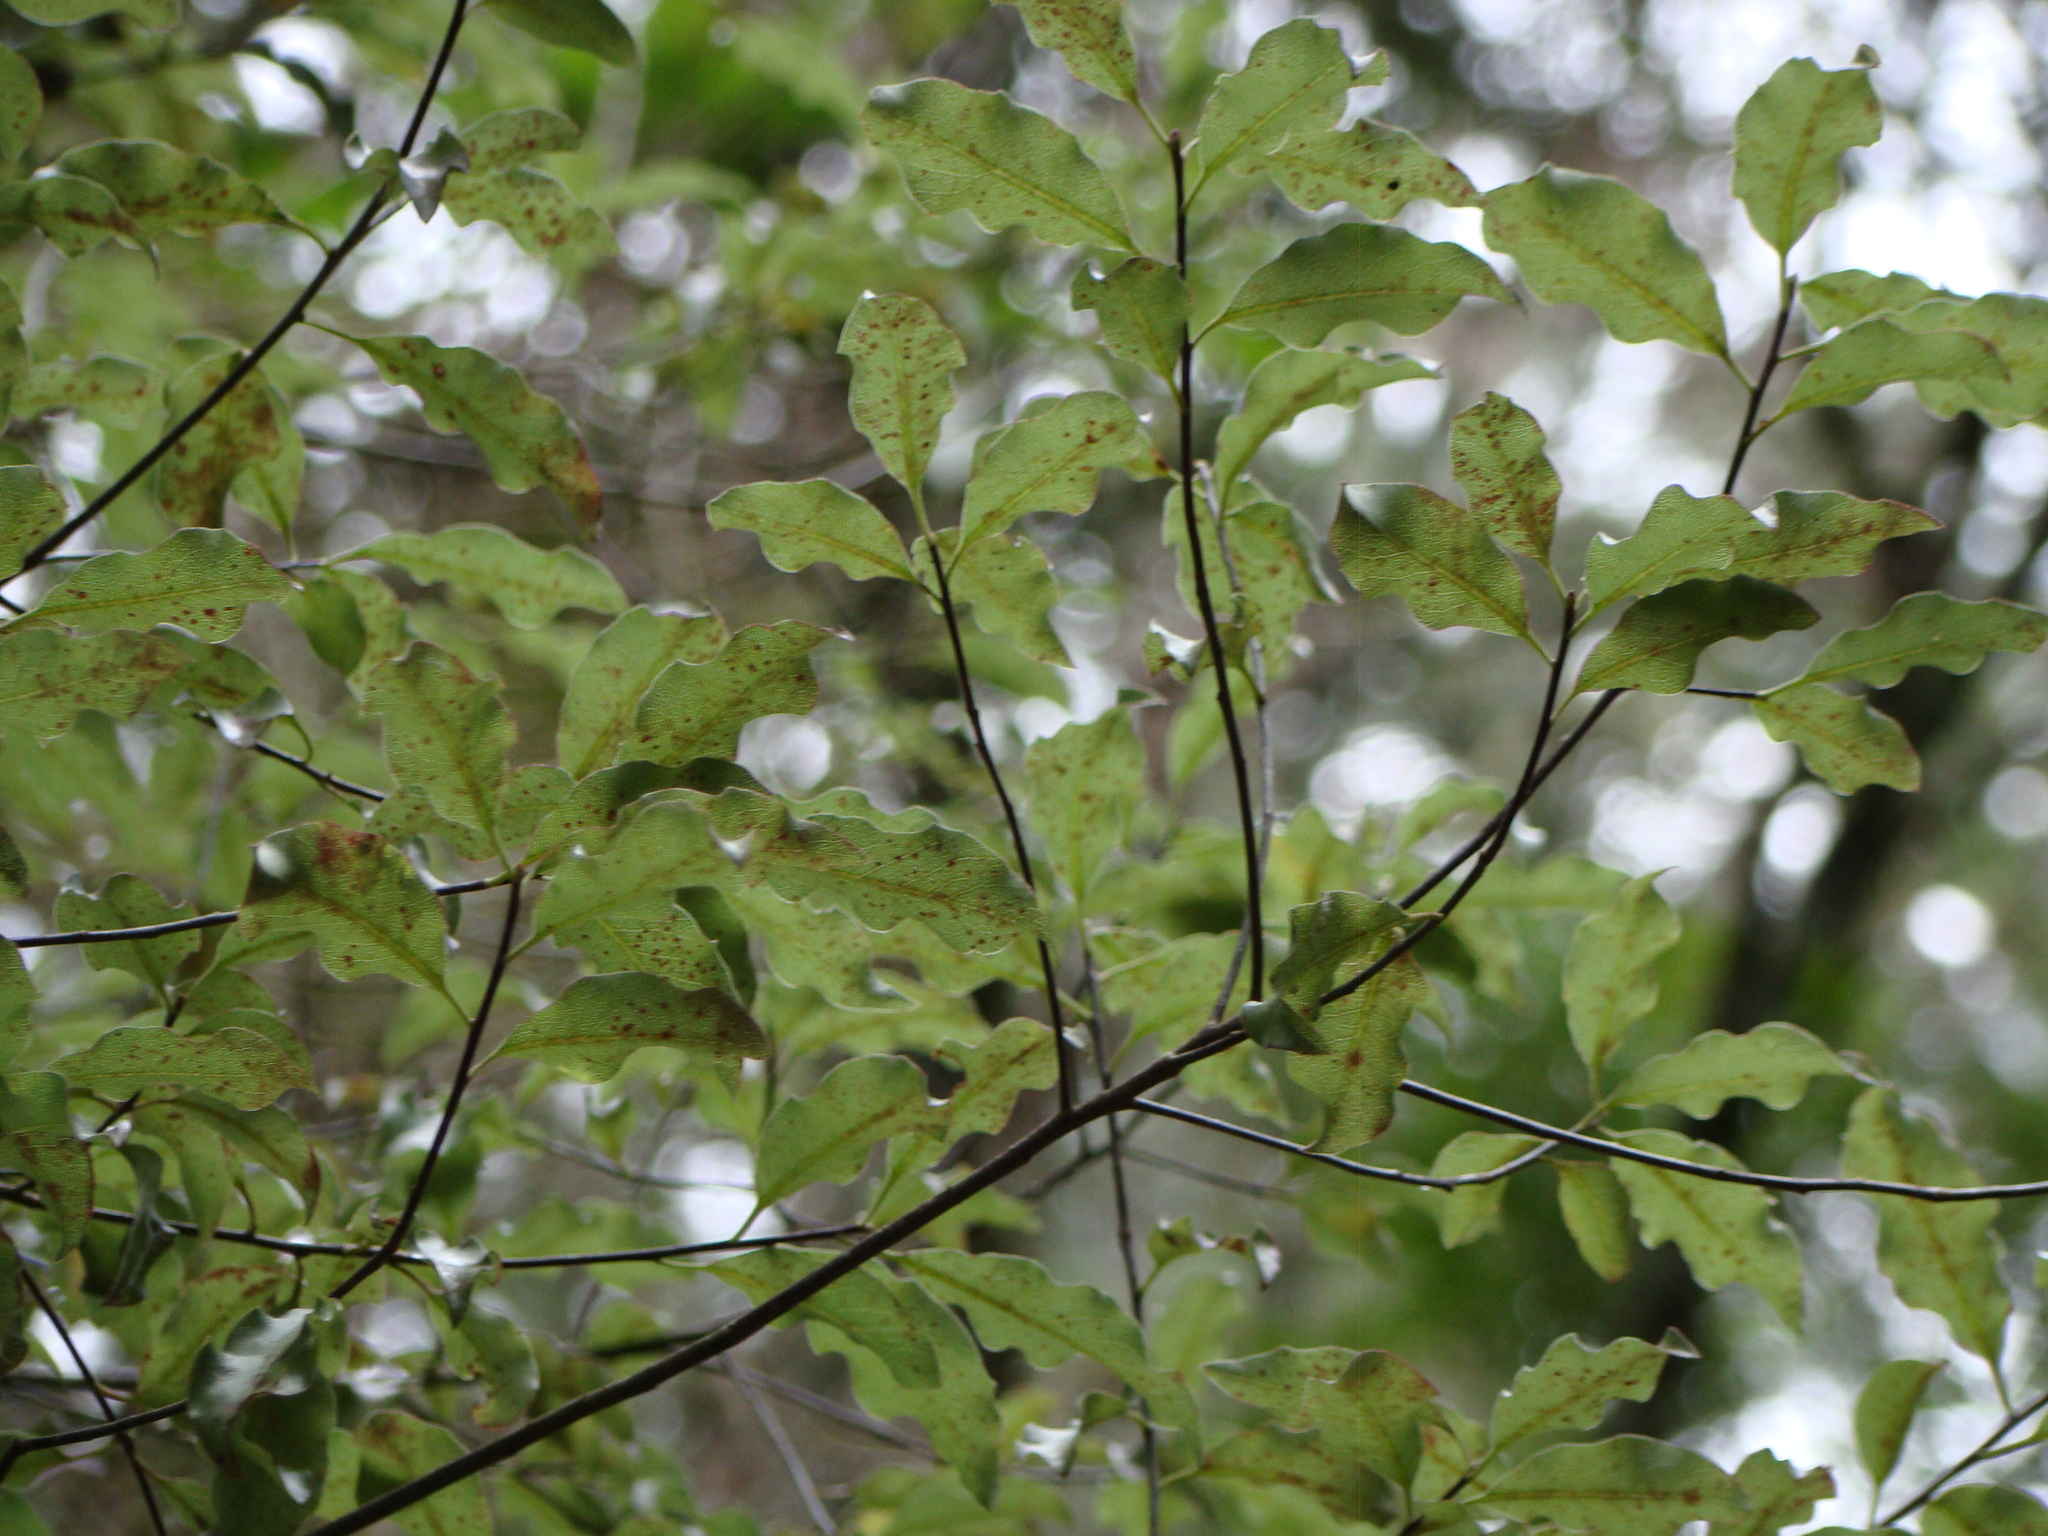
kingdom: Plantae
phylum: Tracheophyta
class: Magnoliopsida
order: Apiales
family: Pittosporaceae
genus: Pittosporum
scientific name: Pittosporum tenuifolium
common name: Kohuhu
